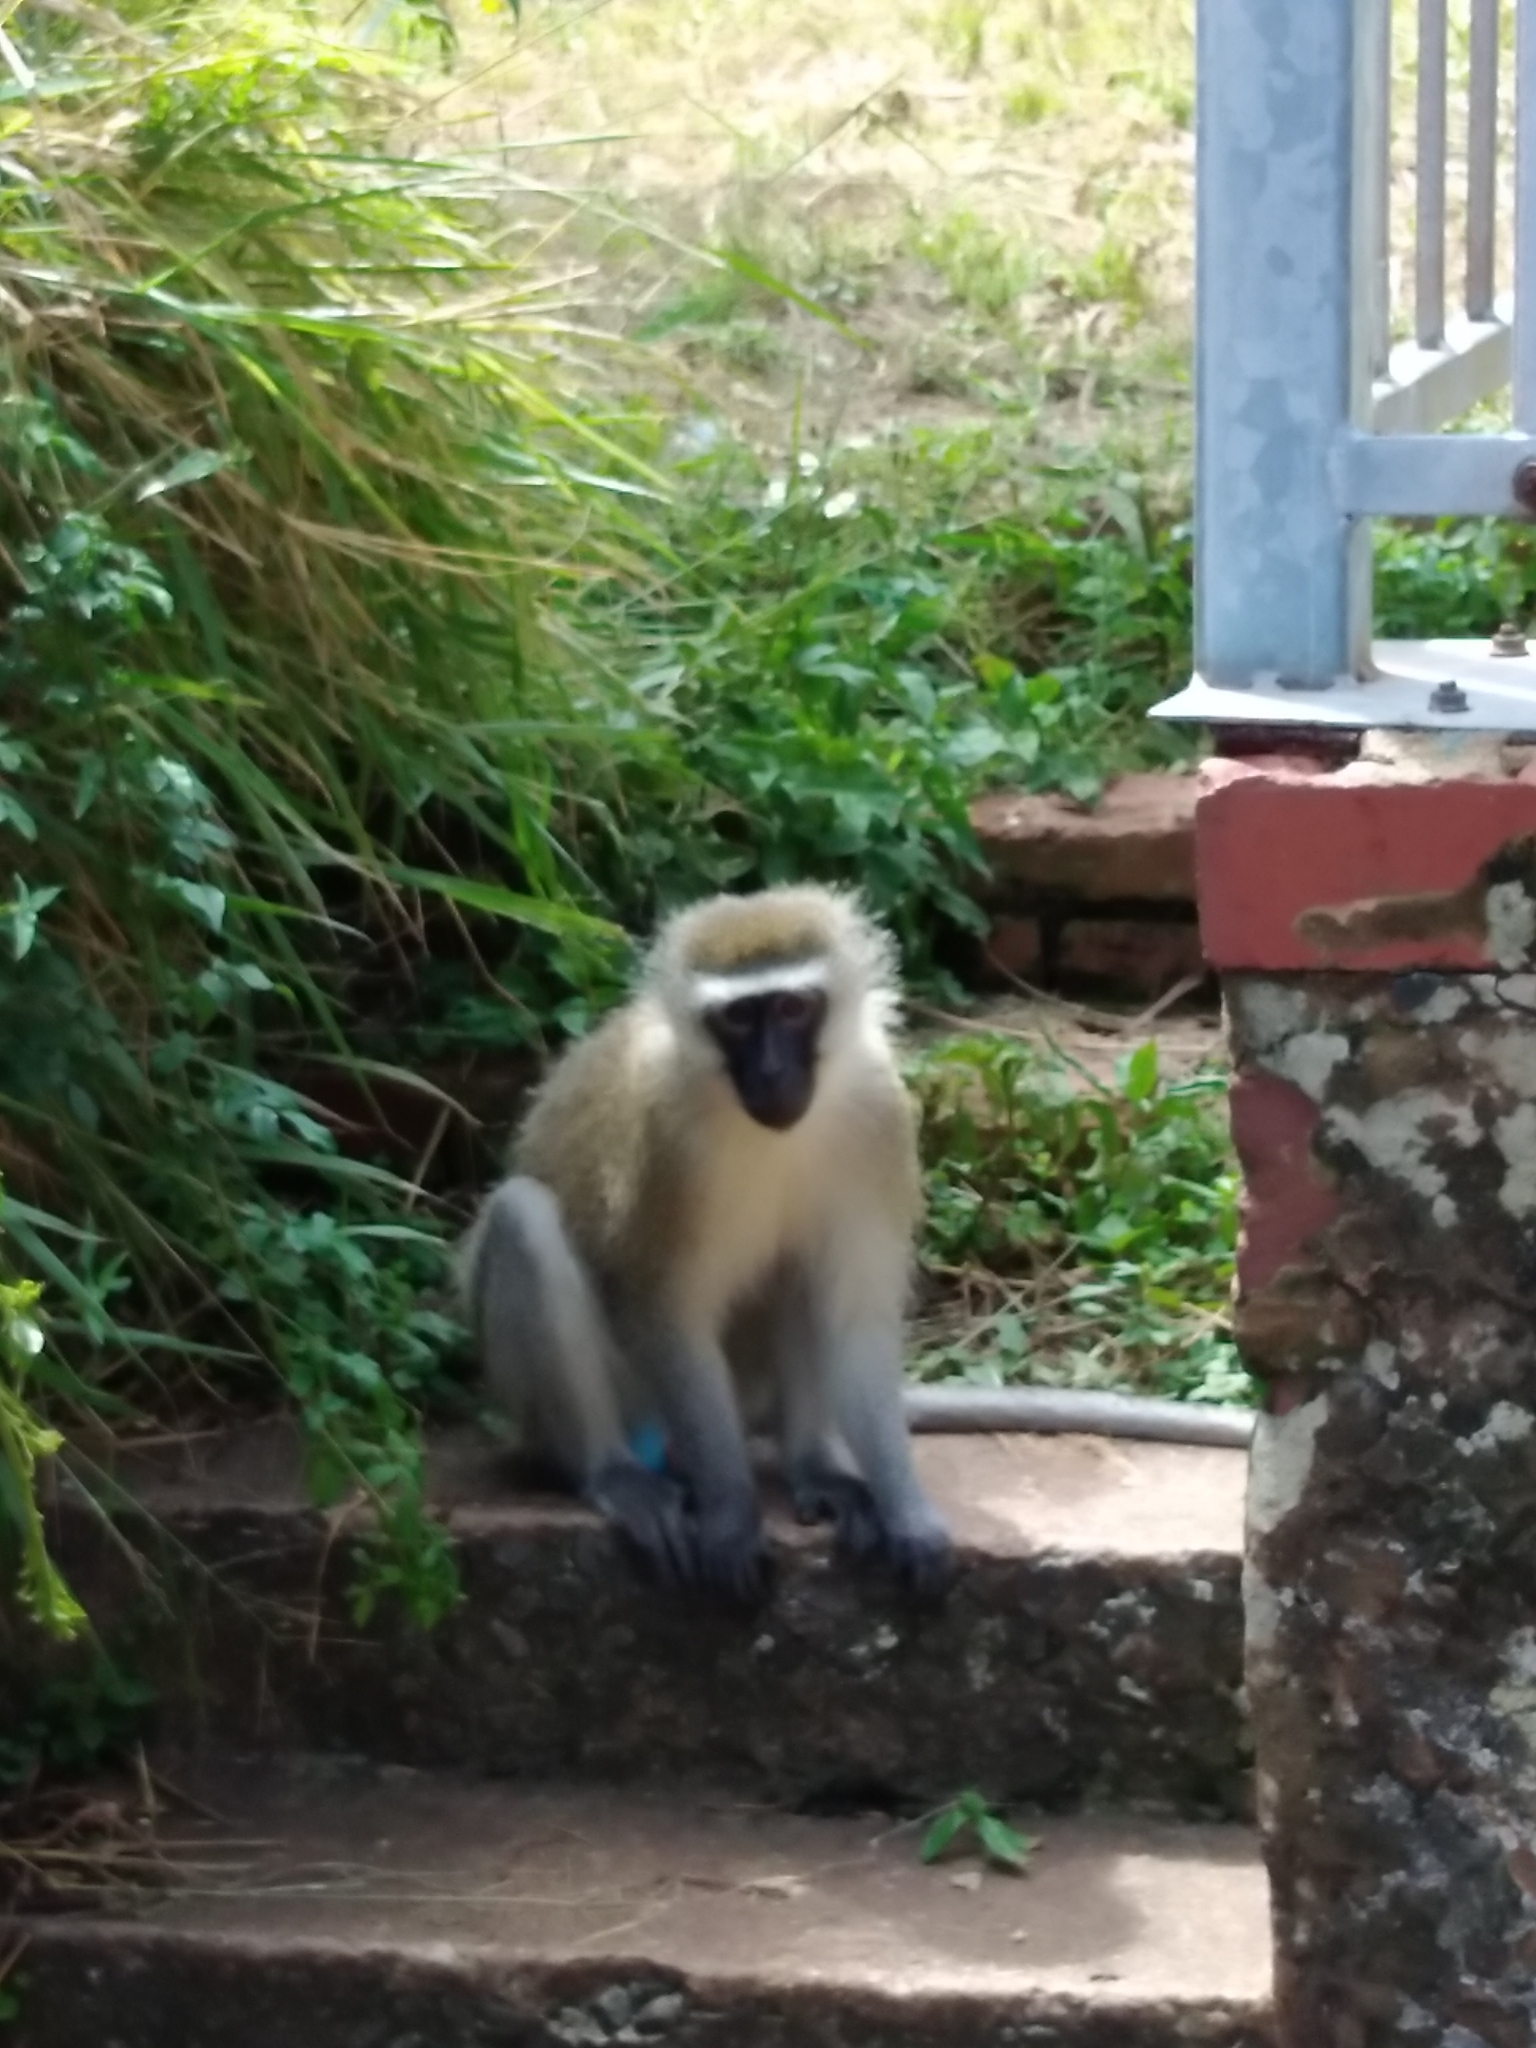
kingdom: Animalia
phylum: Chordata
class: Mammalia
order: Primates
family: Cercopithecidae
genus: Chlorocebus
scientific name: Chlorocebus pygerythrus
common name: Vervet monkey
